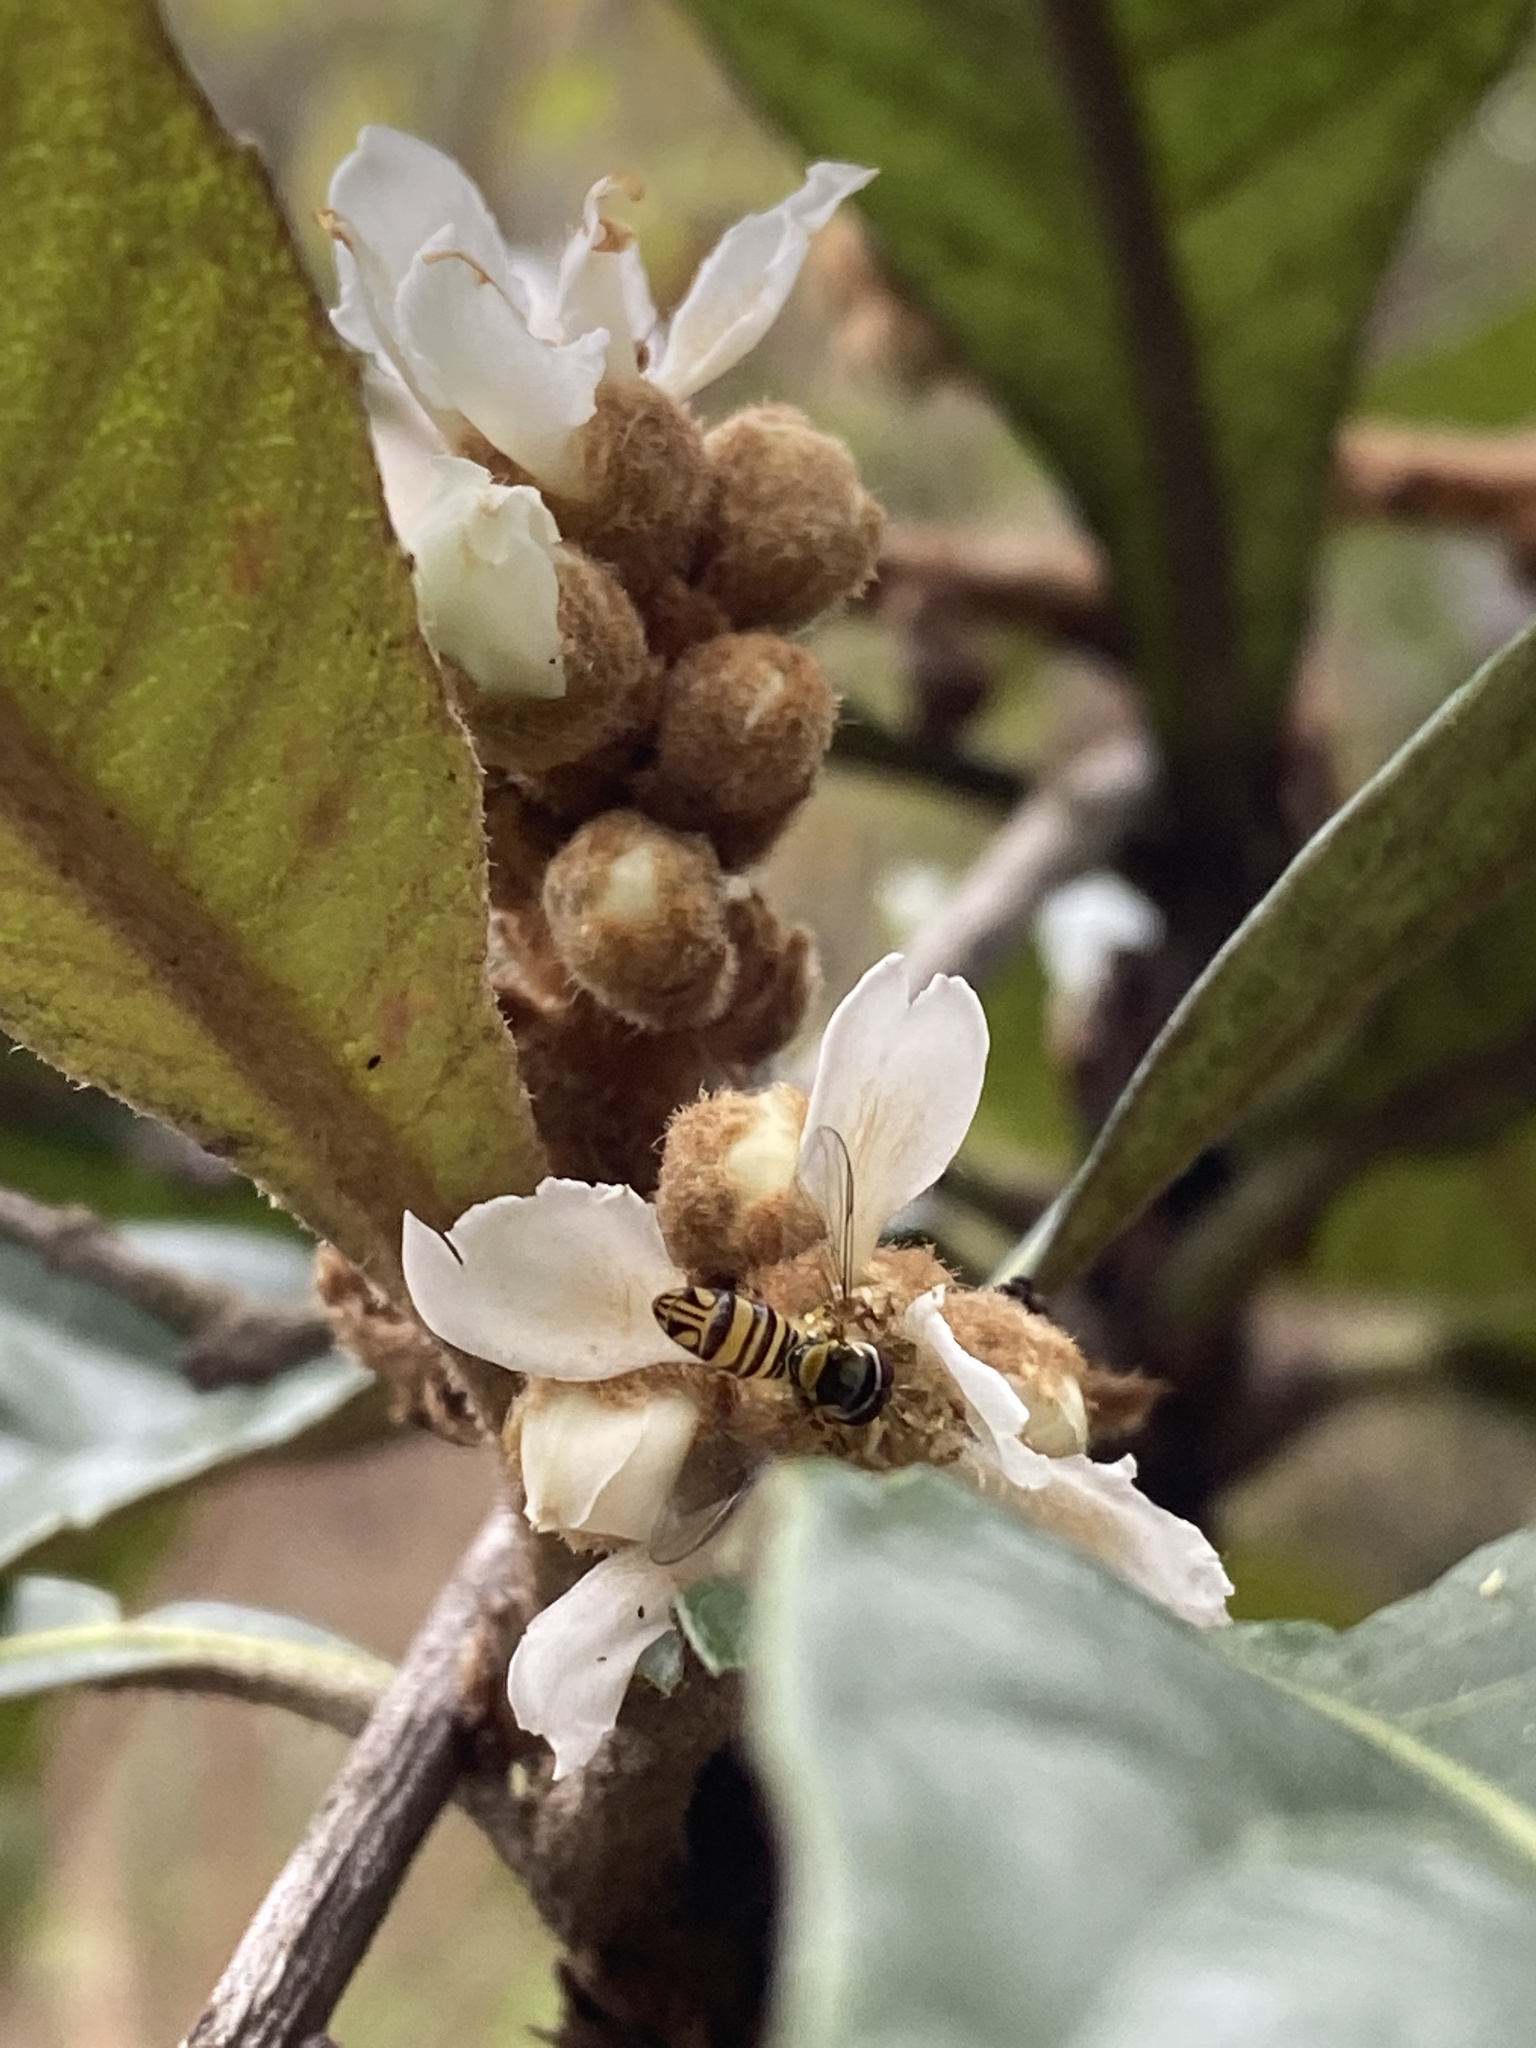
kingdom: Animalia
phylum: Arthropoda
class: Insecta
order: Diptera
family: Syrphidae
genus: Allograpta
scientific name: Allograpta obliqua
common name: Common oblique syrphid
